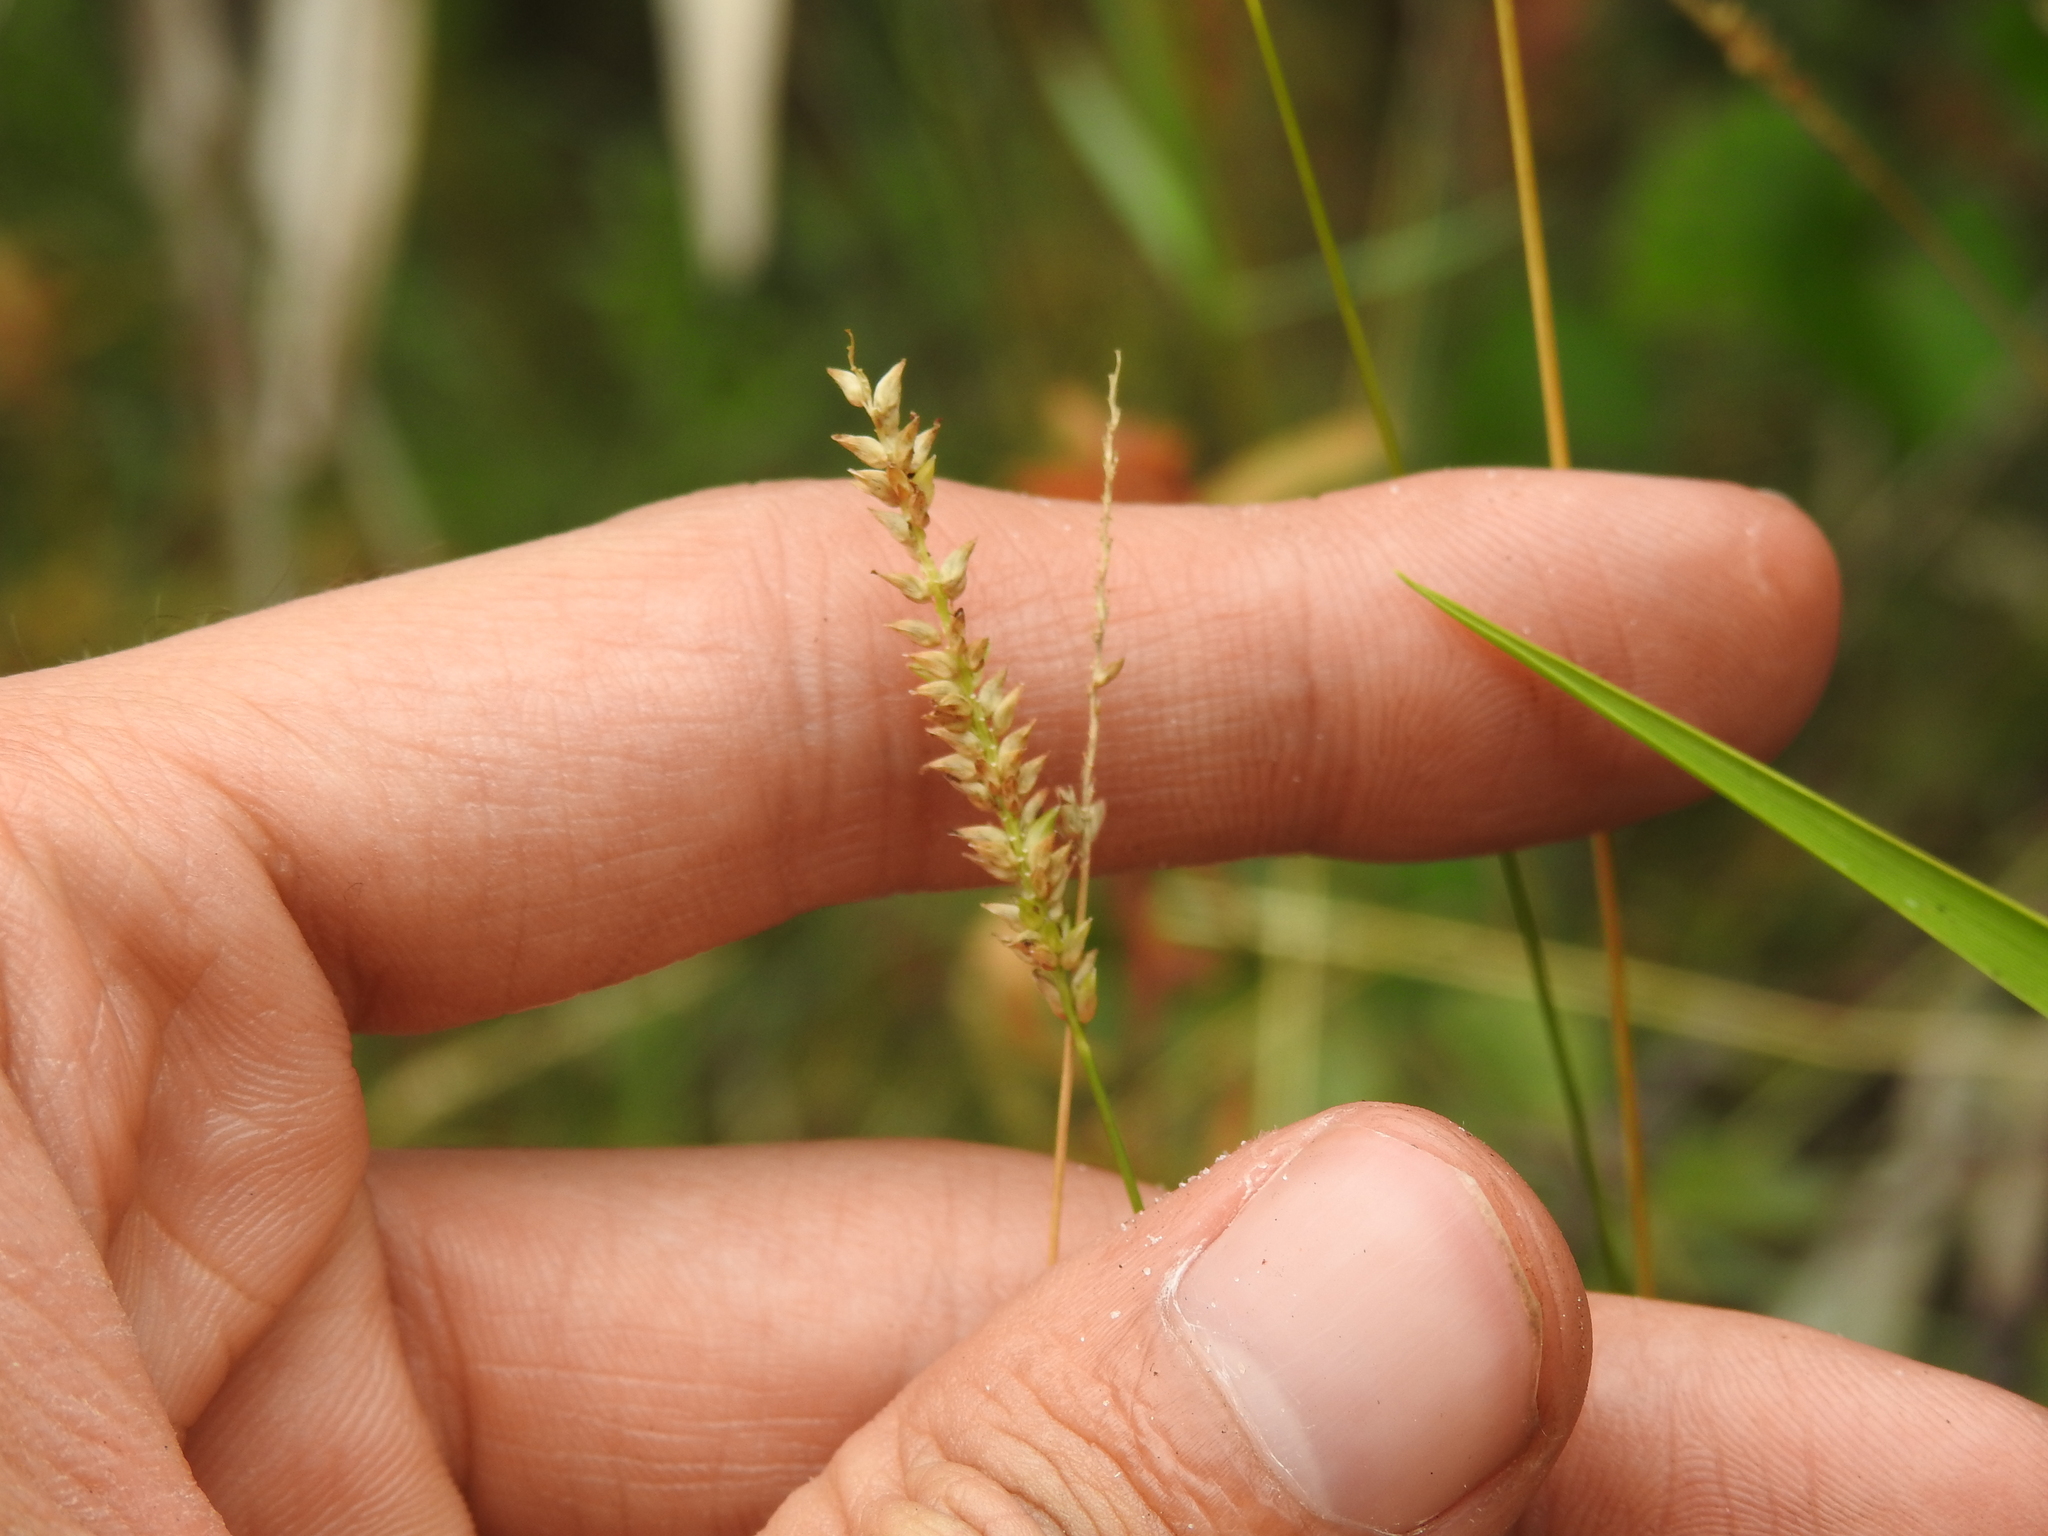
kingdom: Plantae
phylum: Tracheophyta
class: Liliopsida
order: Poales
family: Poaceae
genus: Sacciolepis
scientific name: Sacciolepis indica
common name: Glenwoodgrass
